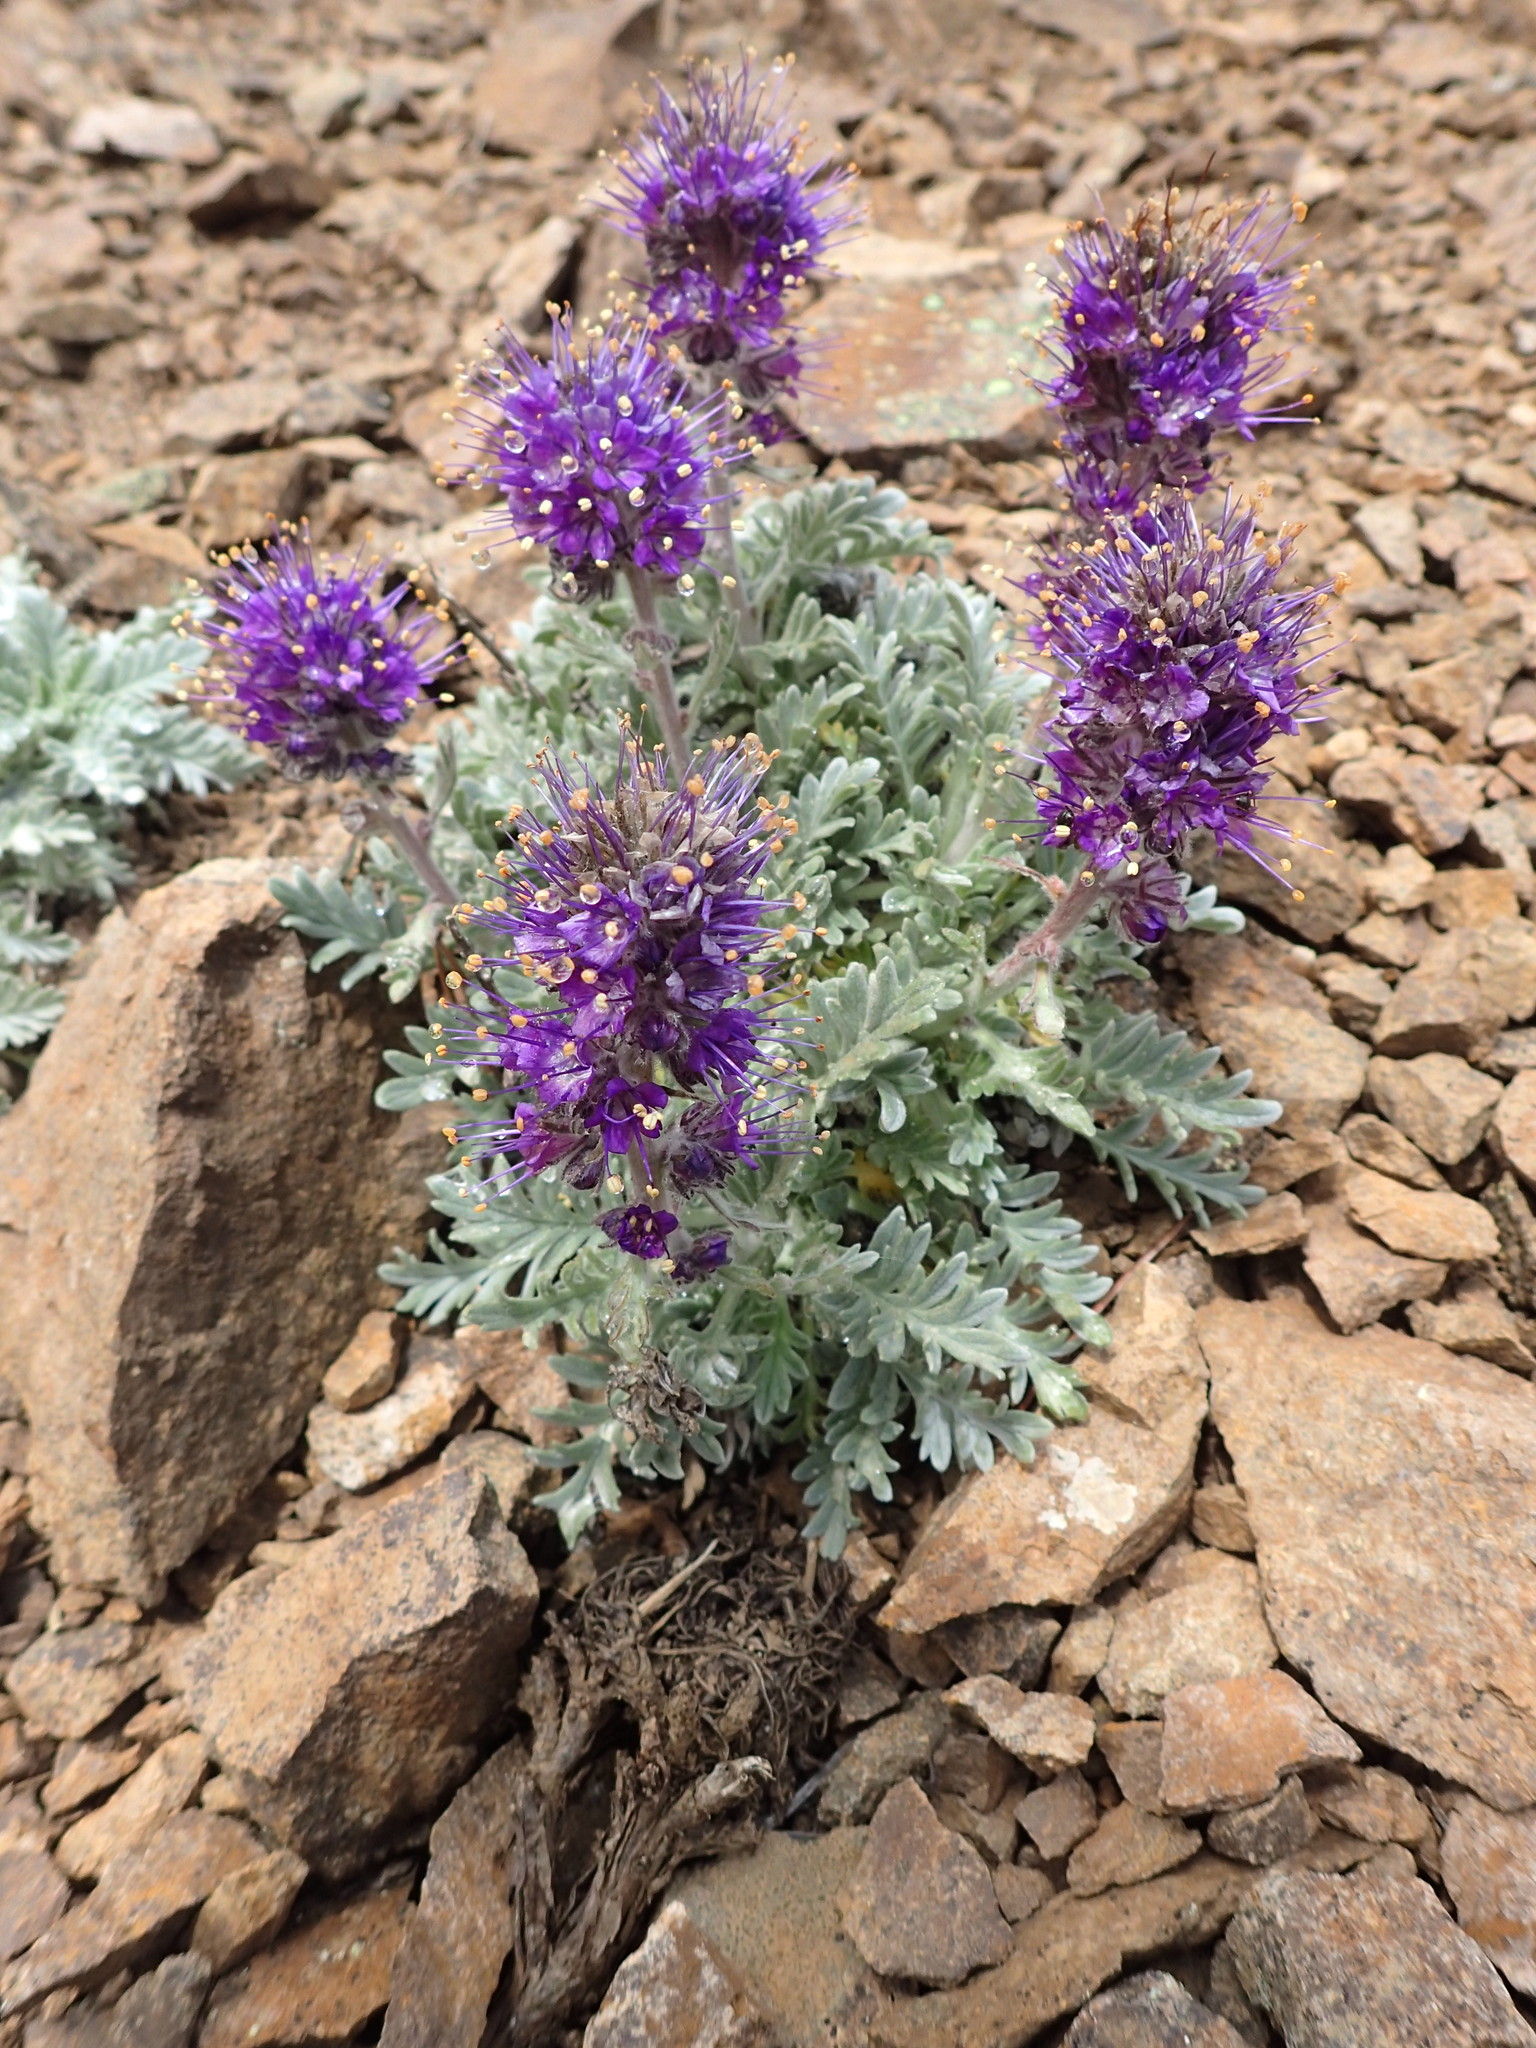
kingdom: Plantae
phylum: Tracheophyta
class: Magnoliopsida
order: Boraginales
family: Hydrophyllaceae
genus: Phacelia
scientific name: Phacelia sericea
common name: Silky phacelia
